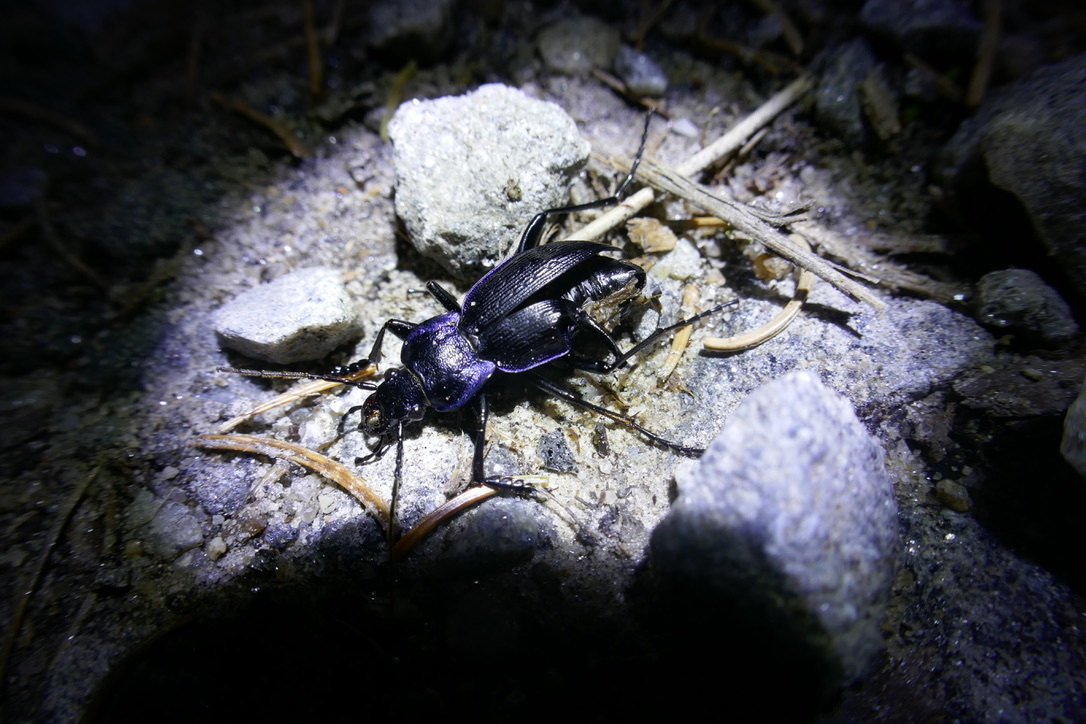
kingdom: Animalia
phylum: Arthropoda
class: Insecta
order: Coleoptera
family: Carabidae
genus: Carabus
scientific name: Carabus problematicus
